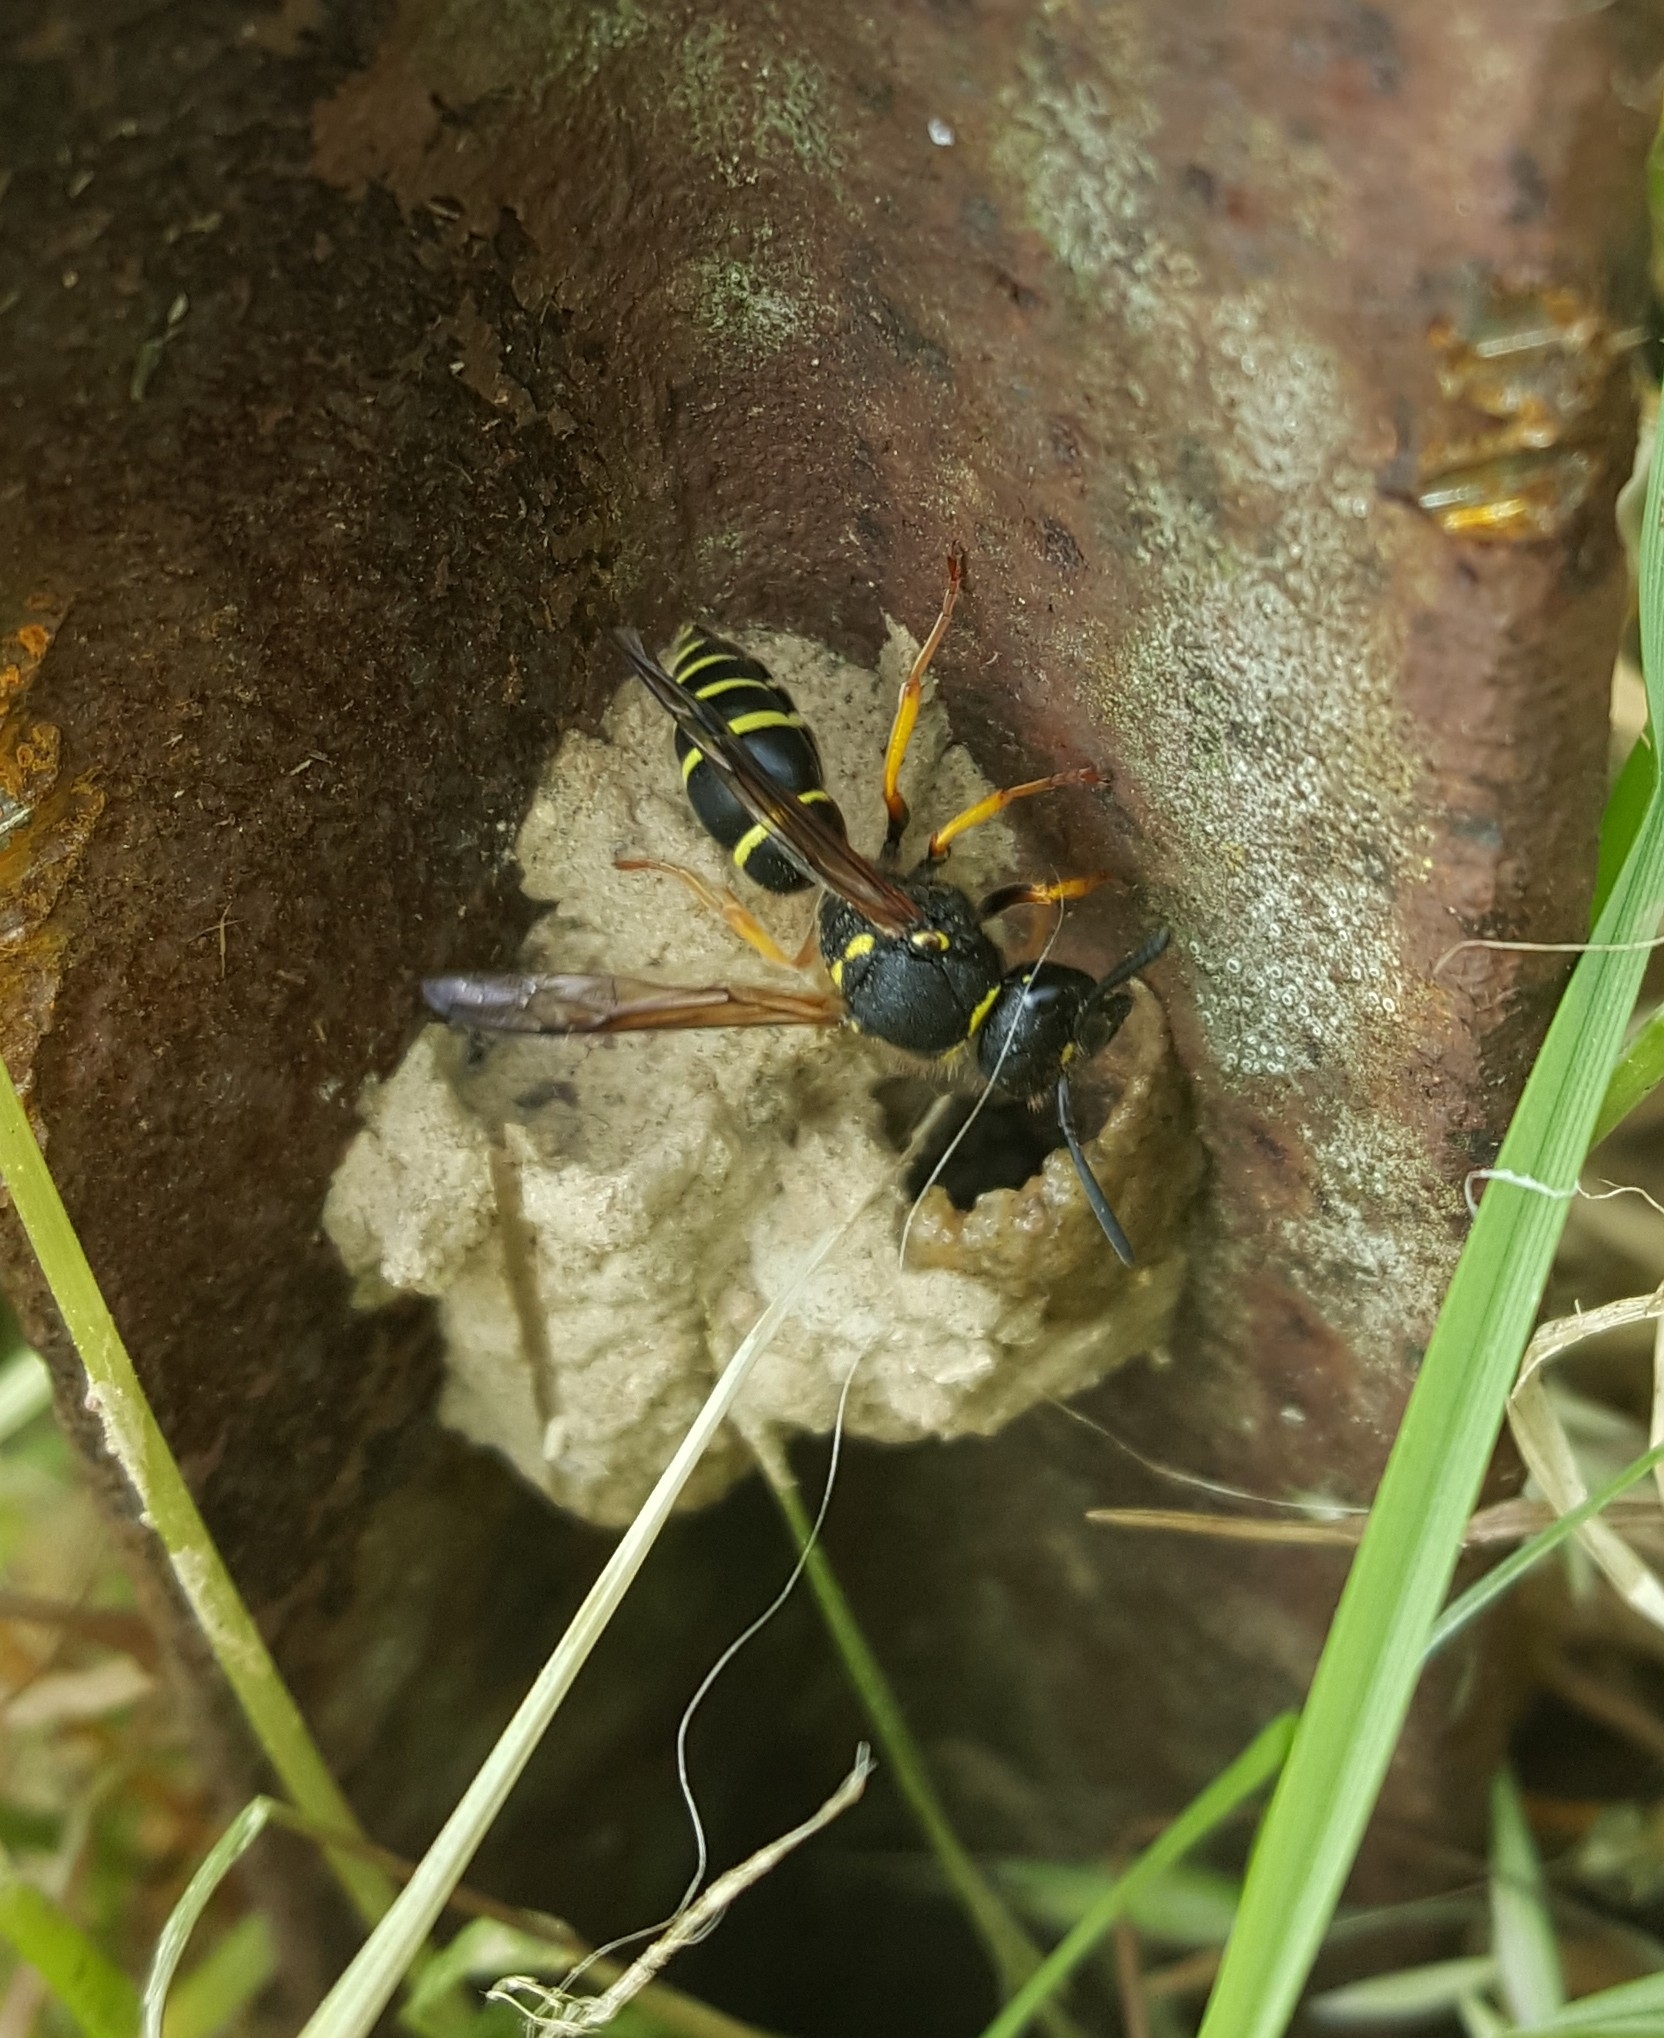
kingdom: Animalia
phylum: Arthropoda
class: Insecta
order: Hymenoptera
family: Vespidae
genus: Ancistrocerus
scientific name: Ancistrocerus oviventris
